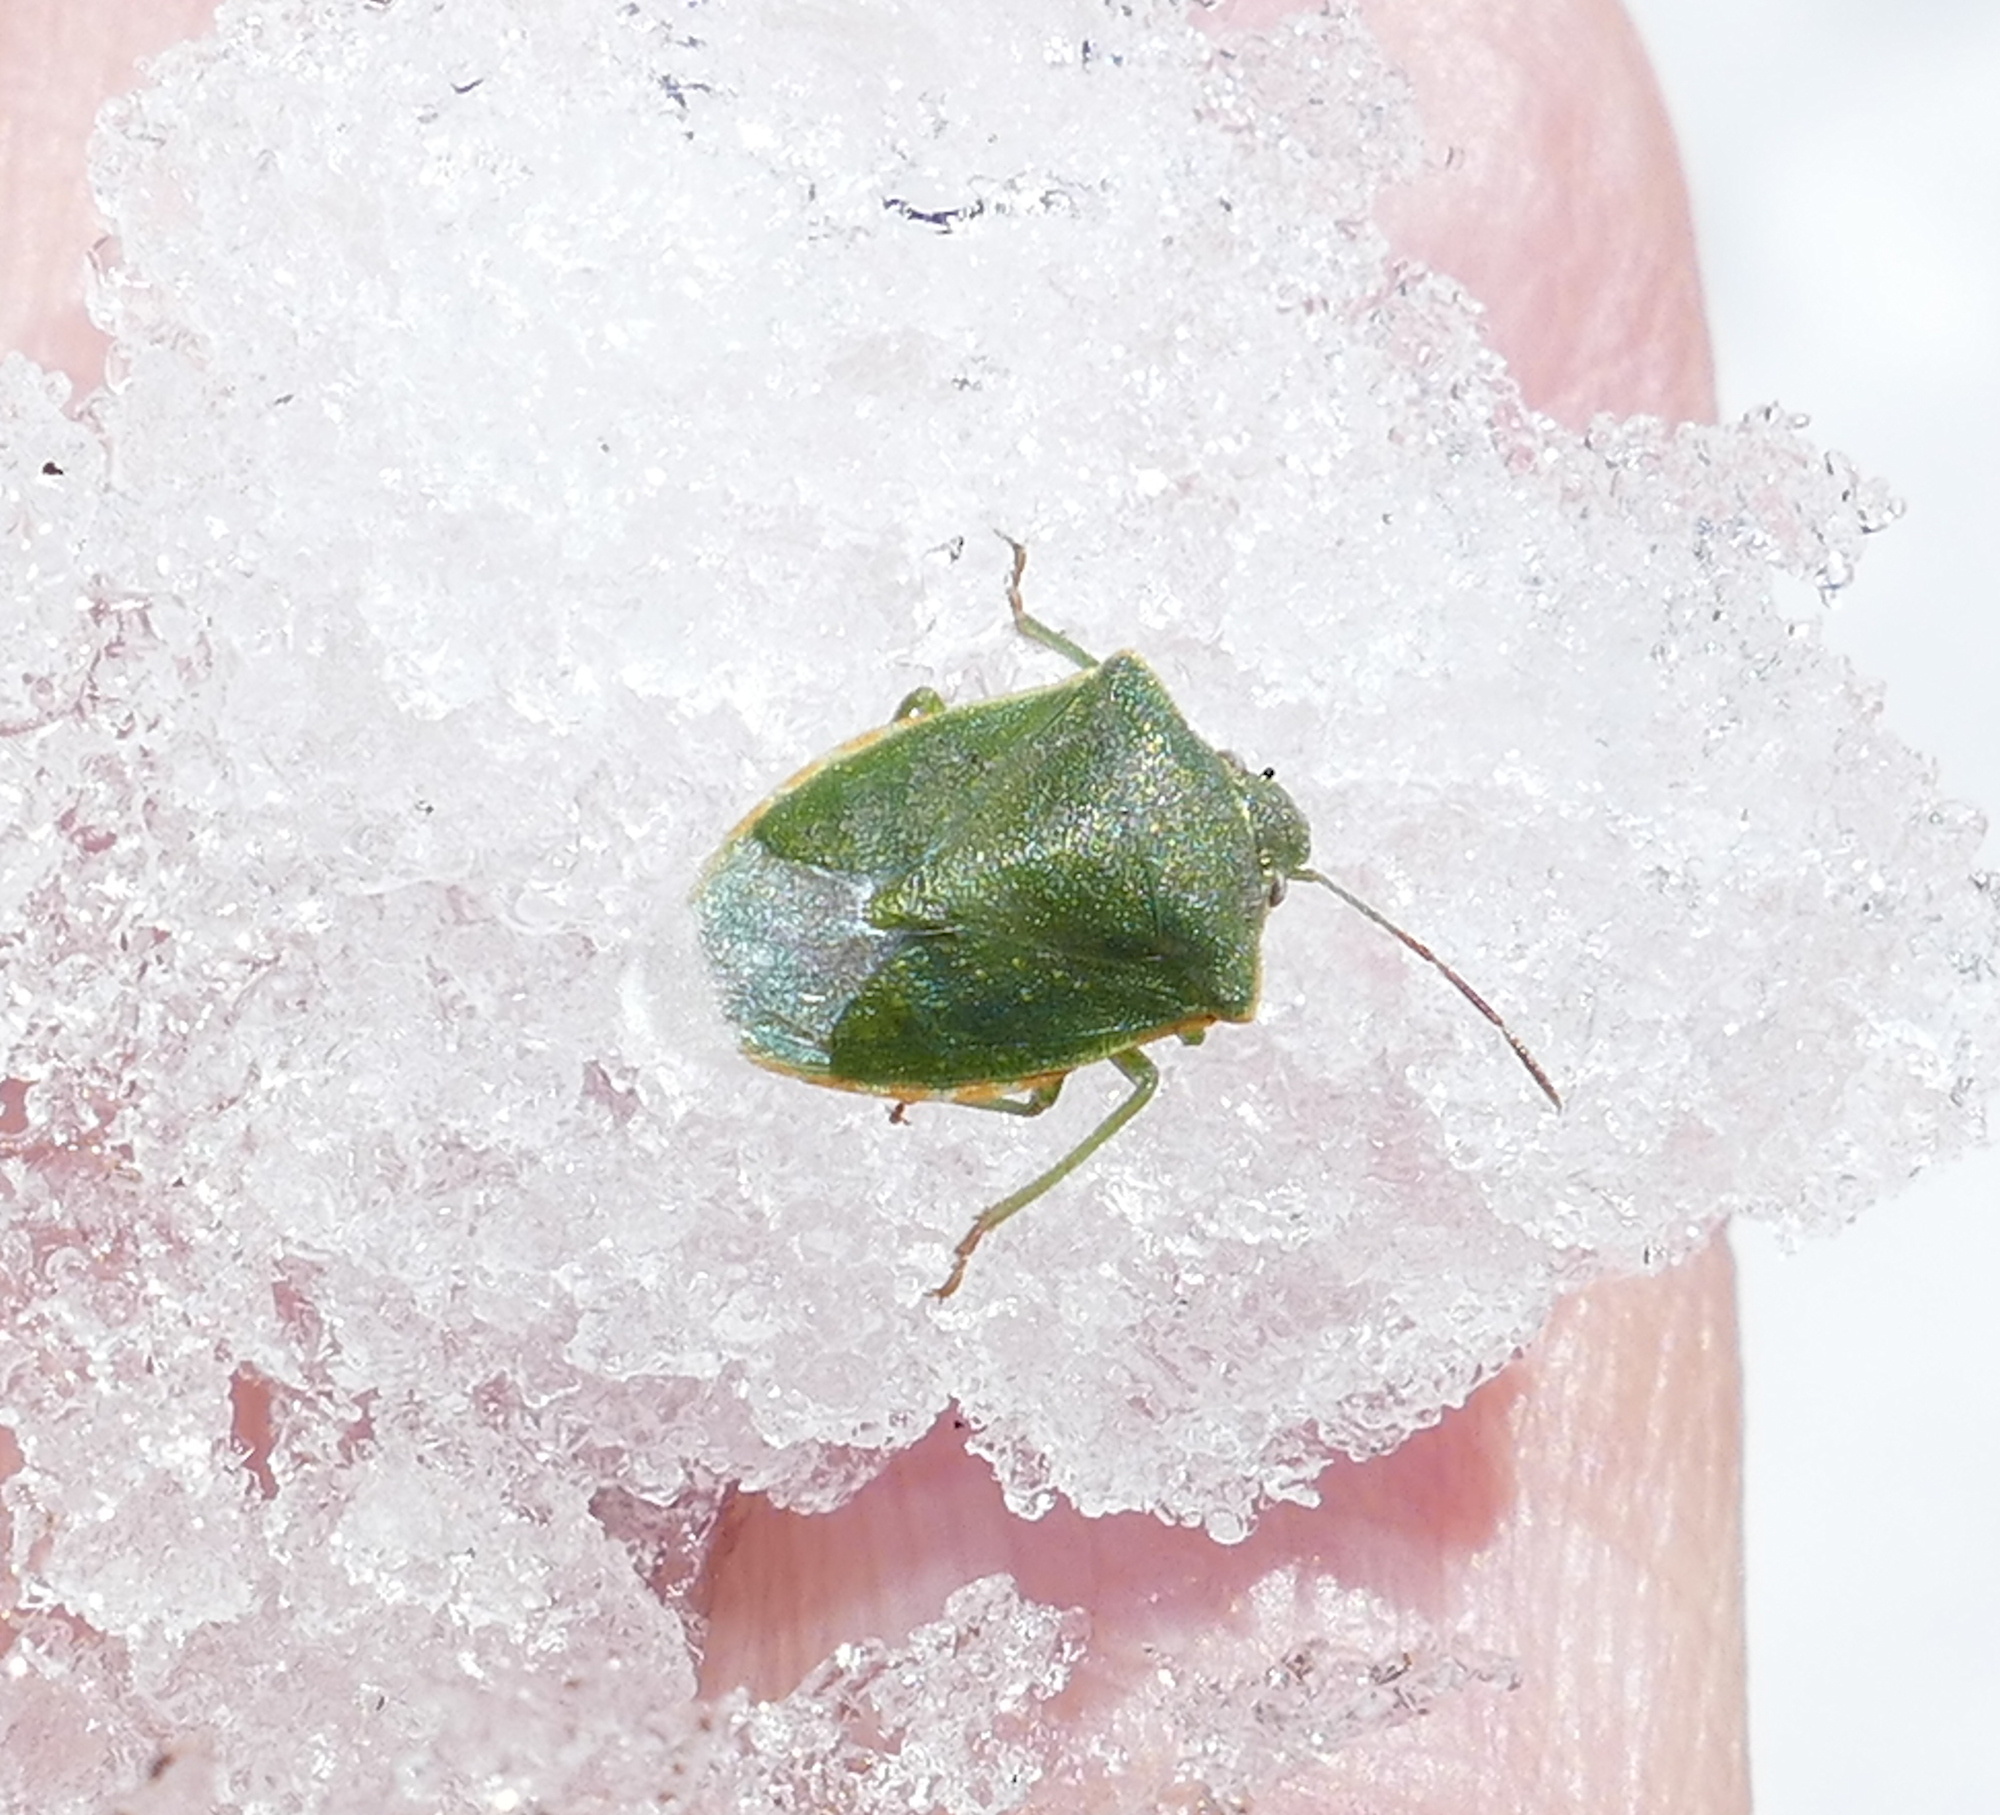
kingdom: Animalia
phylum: Arthropoda
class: Insecta
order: Hemiptera
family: Pentatomidae
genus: Thyanta
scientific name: Thyanta accerra
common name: Stink bug
